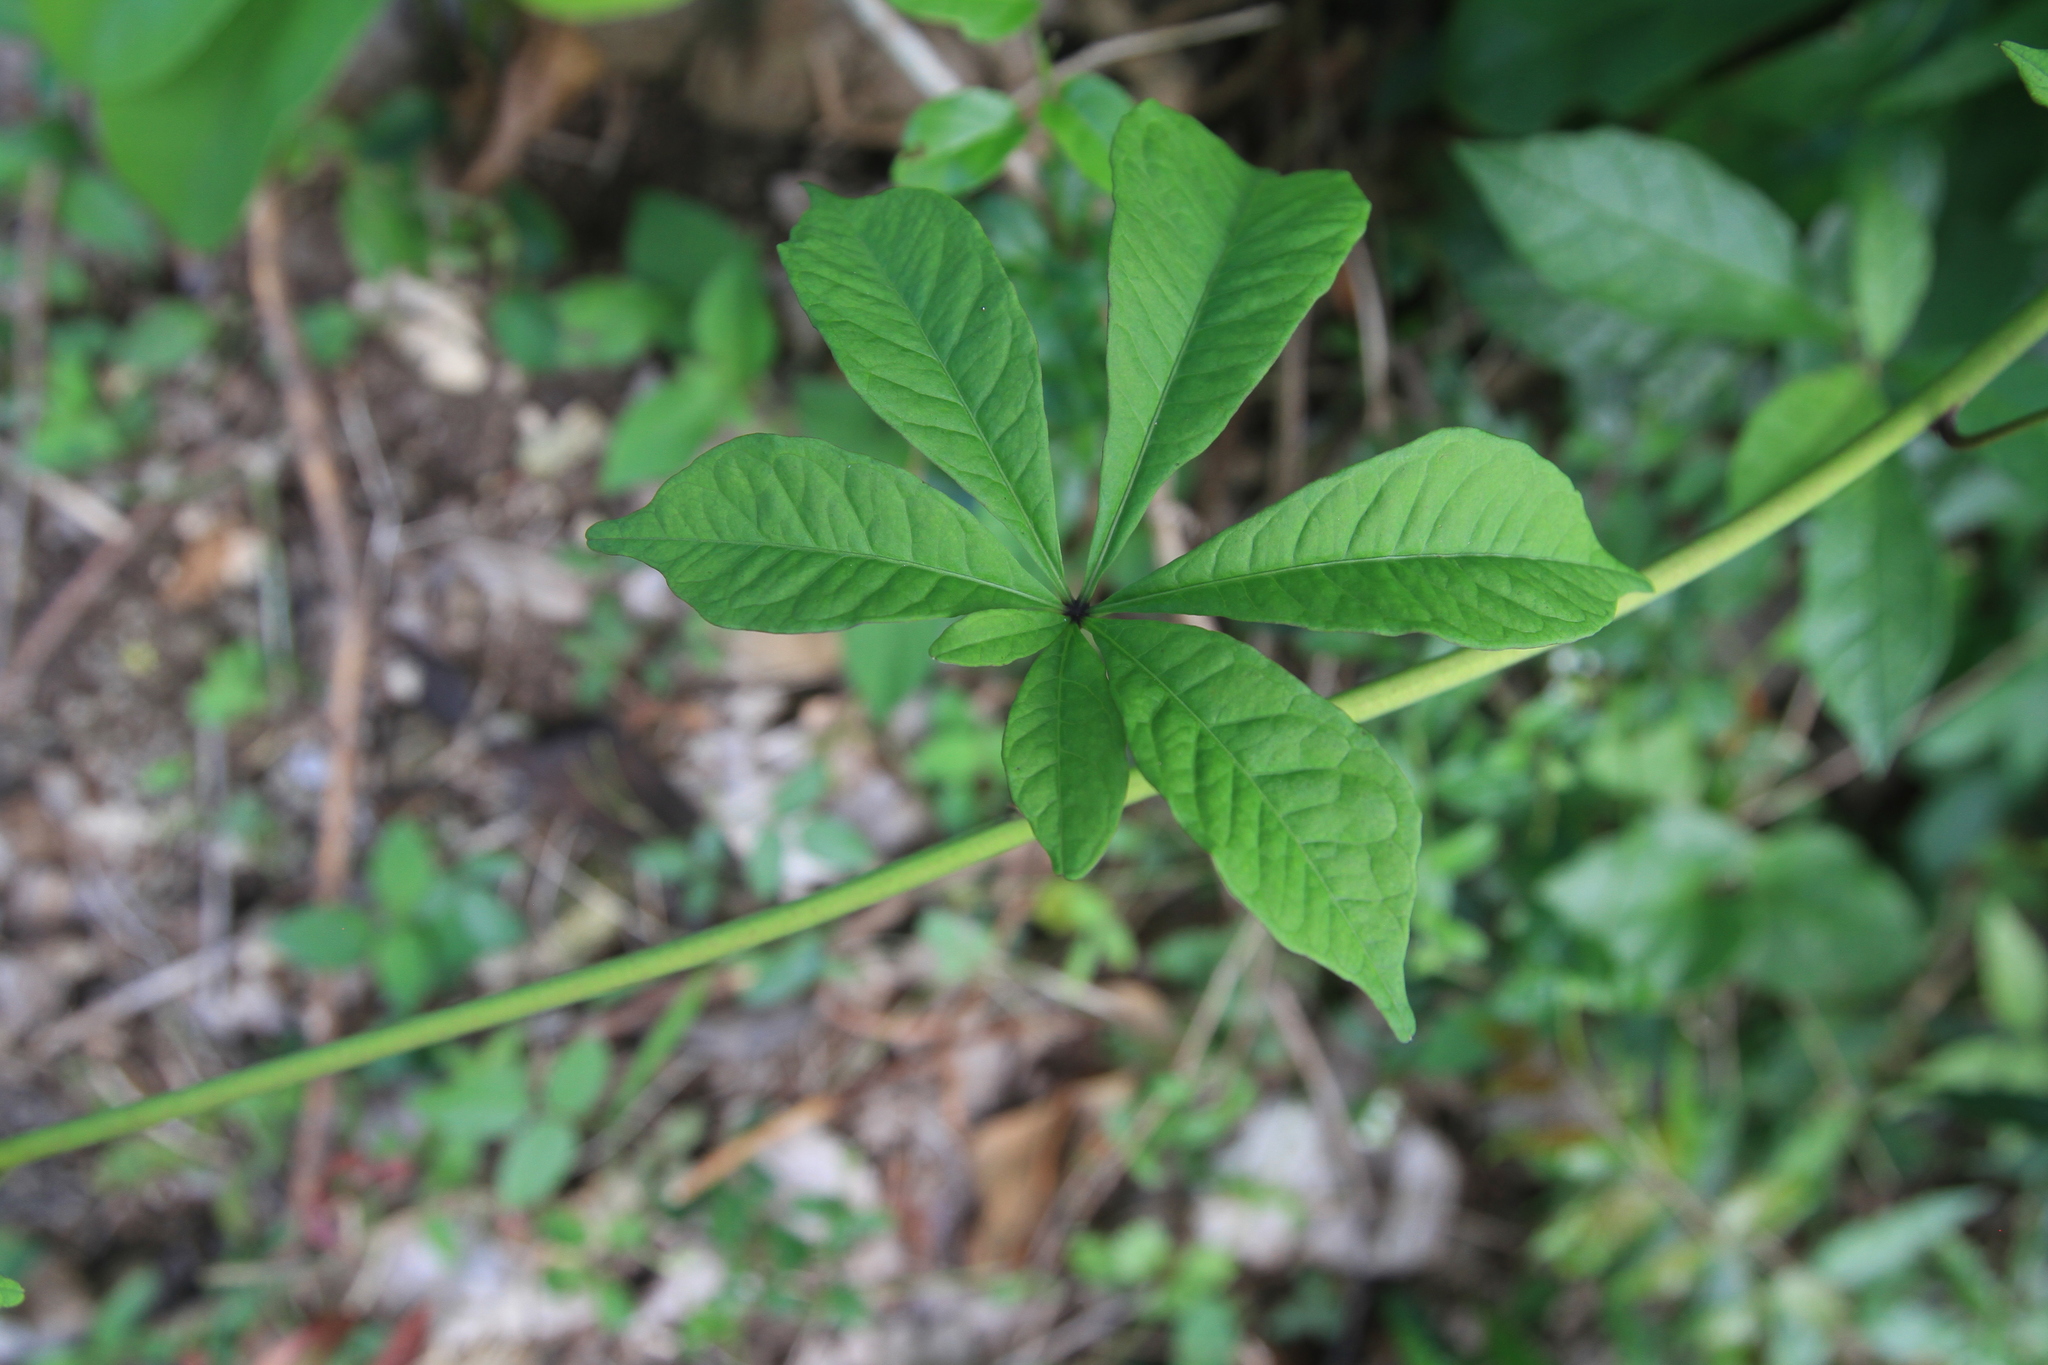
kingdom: Plantae
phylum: Tracheophyta
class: Magnoliopsida
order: Solanales
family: Convolvulaceae
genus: Distimake
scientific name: Distimake aegyptius
